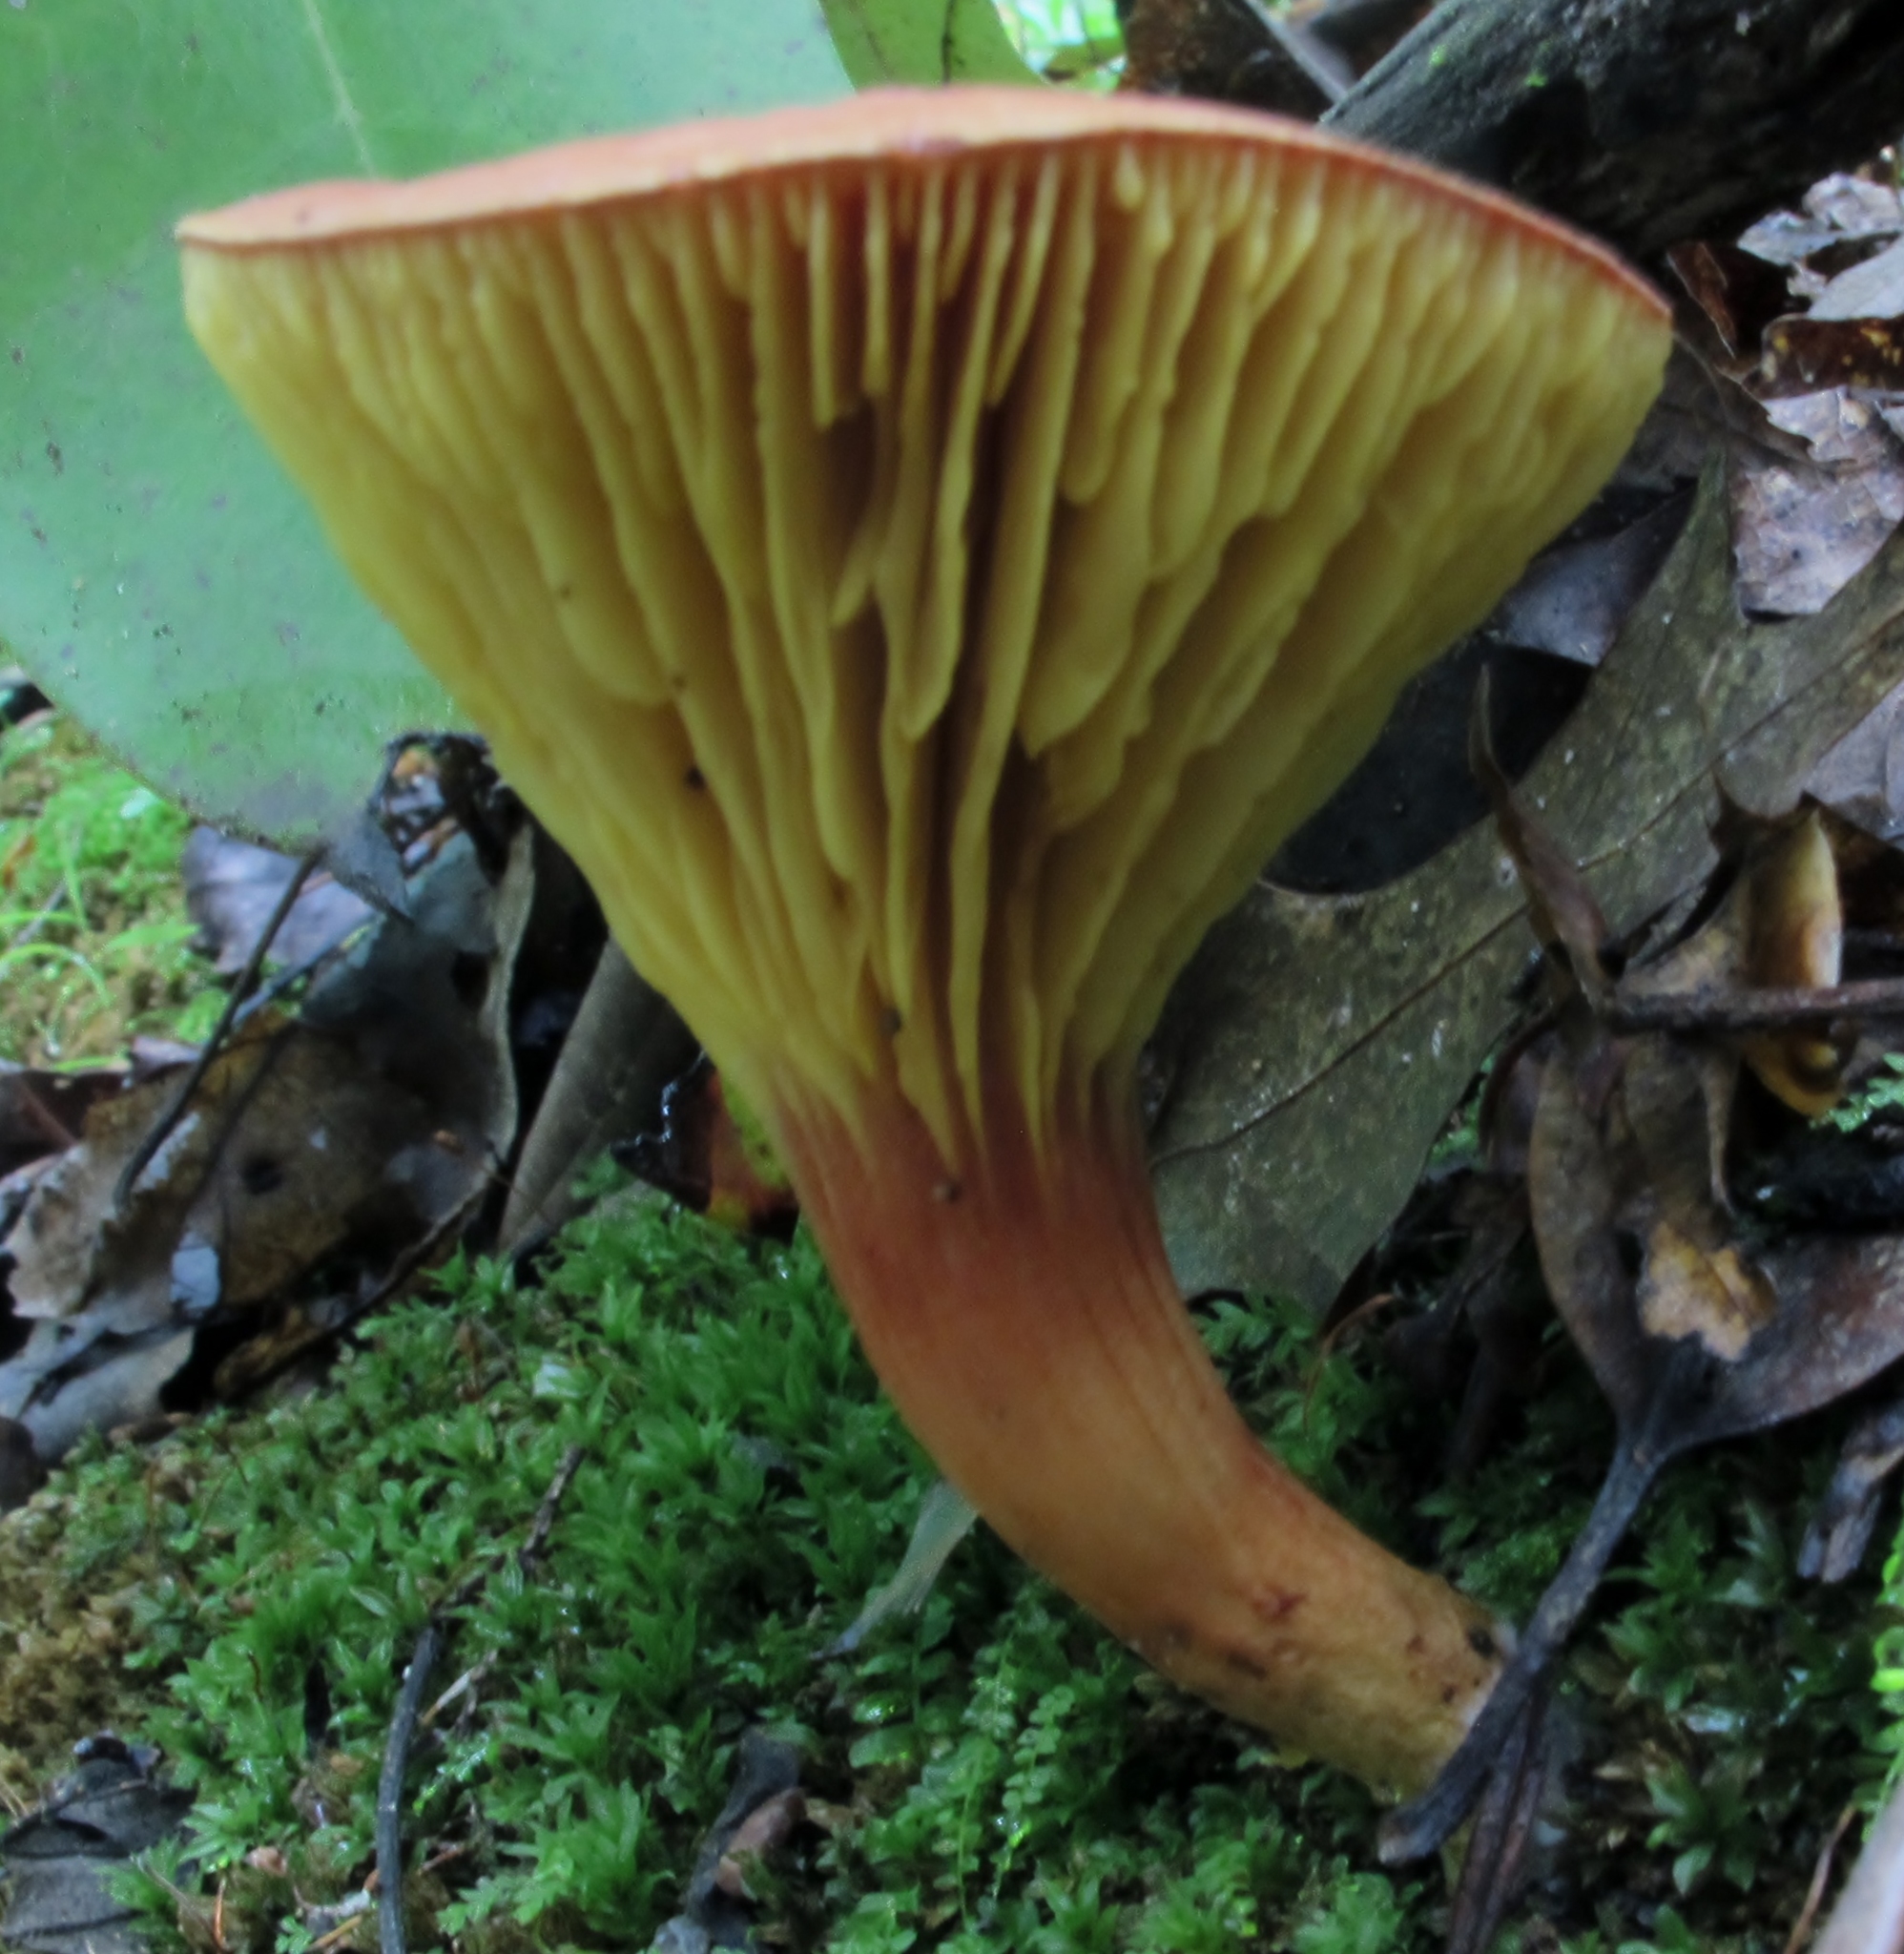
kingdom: Fungi
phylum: Basidiomycota
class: Agaricomycetes
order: Boletales
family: Boletaceae
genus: Phylloporus
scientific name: Phylloporus rhodoxanthus
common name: Golden gilled bolete
